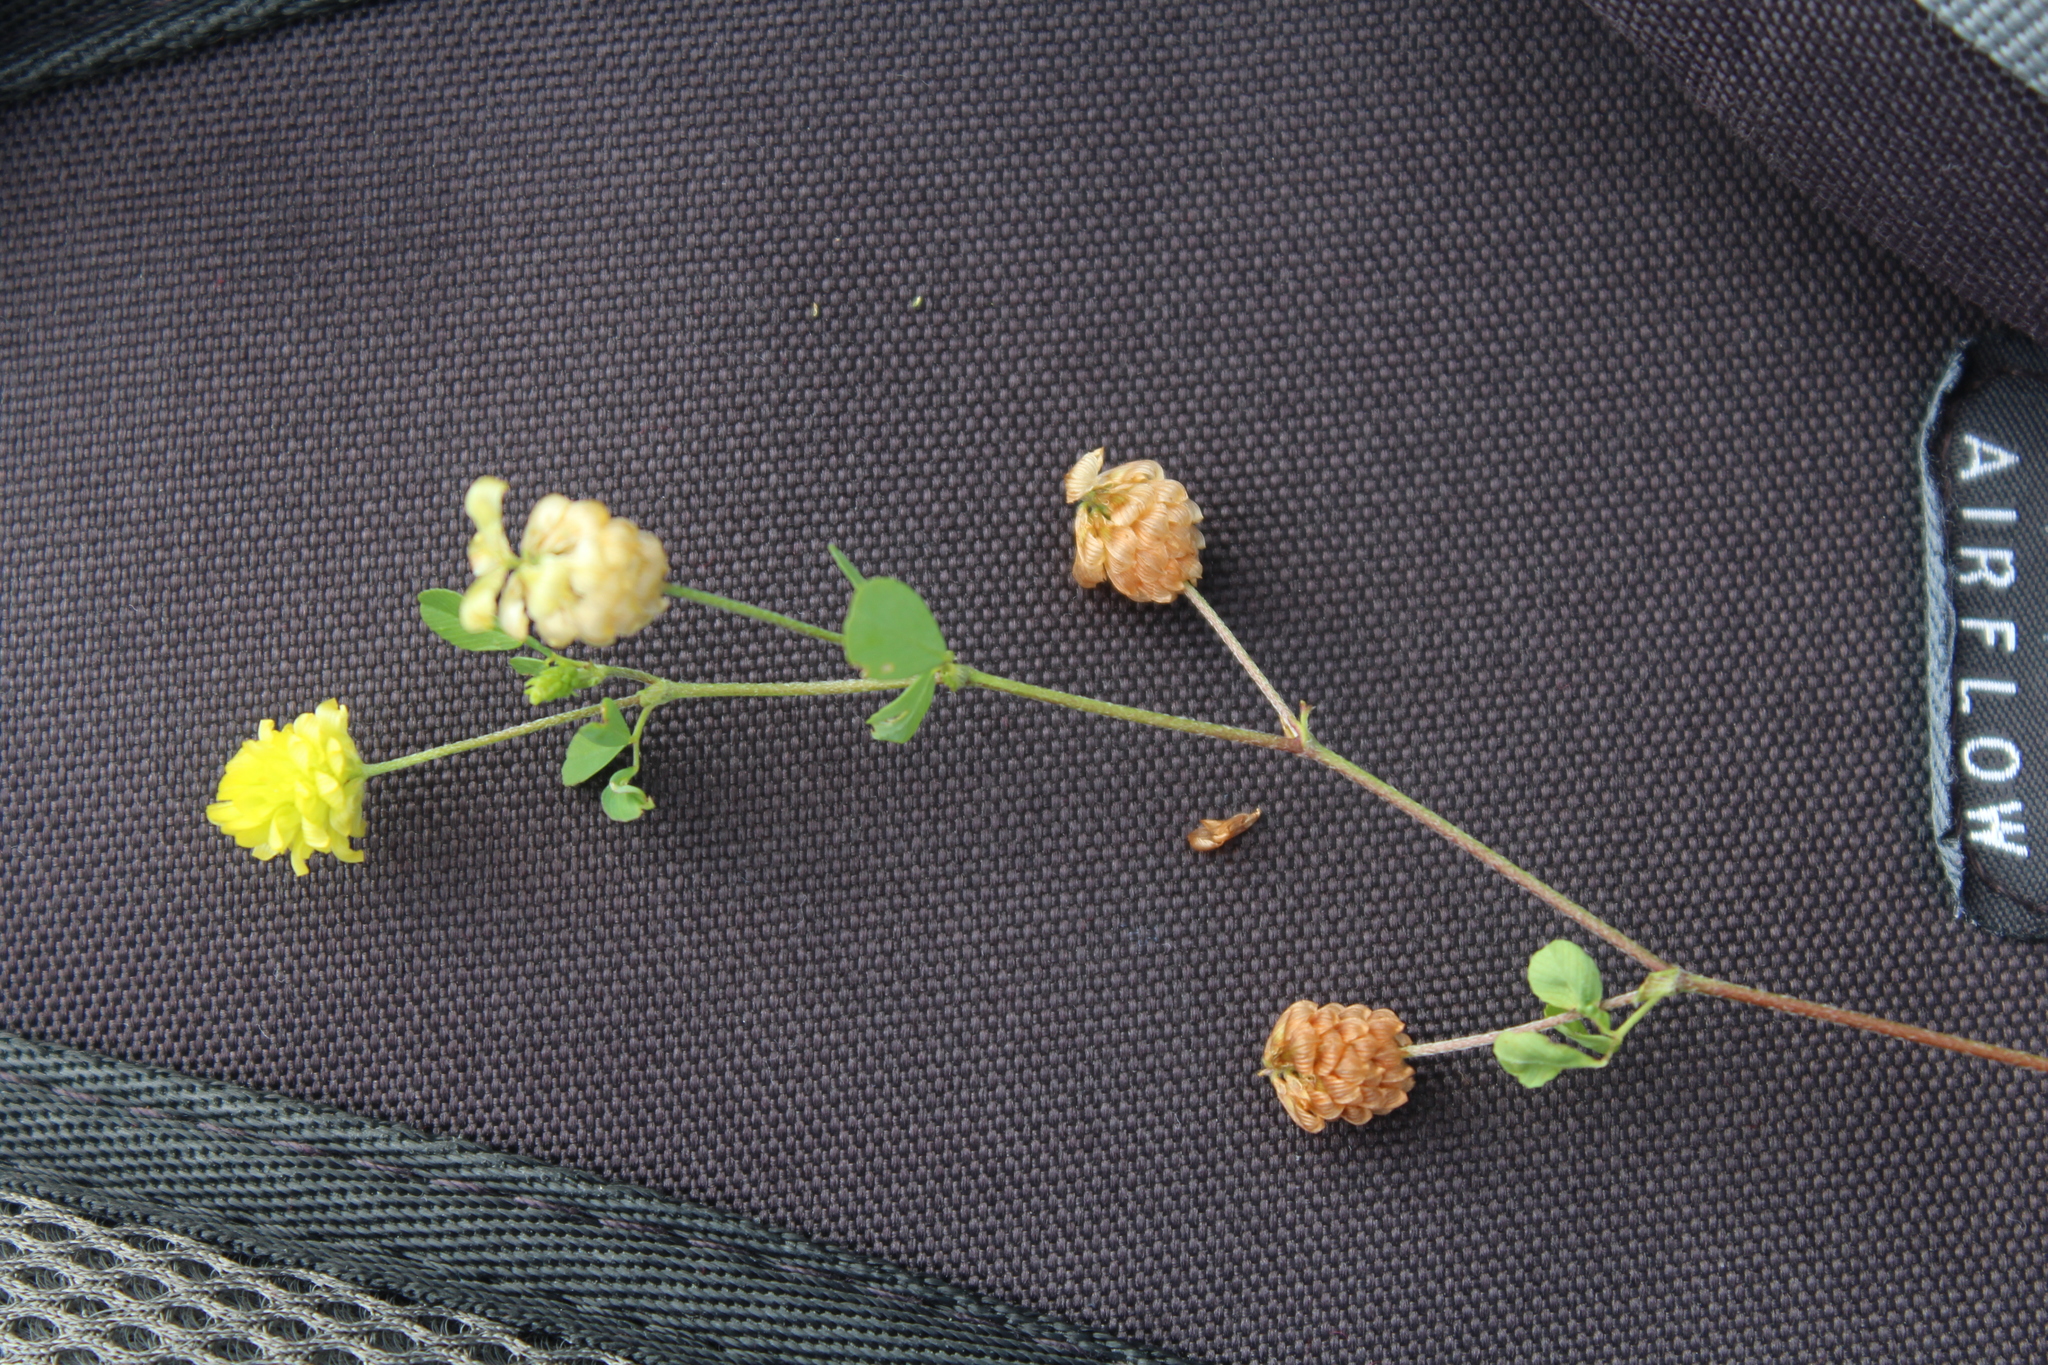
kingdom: Plantae
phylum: Tracheophyta
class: Magnoliopsida
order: Fabales
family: Fabaceae
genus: Trifolium
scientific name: Trifolium campestre
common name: Field clover
